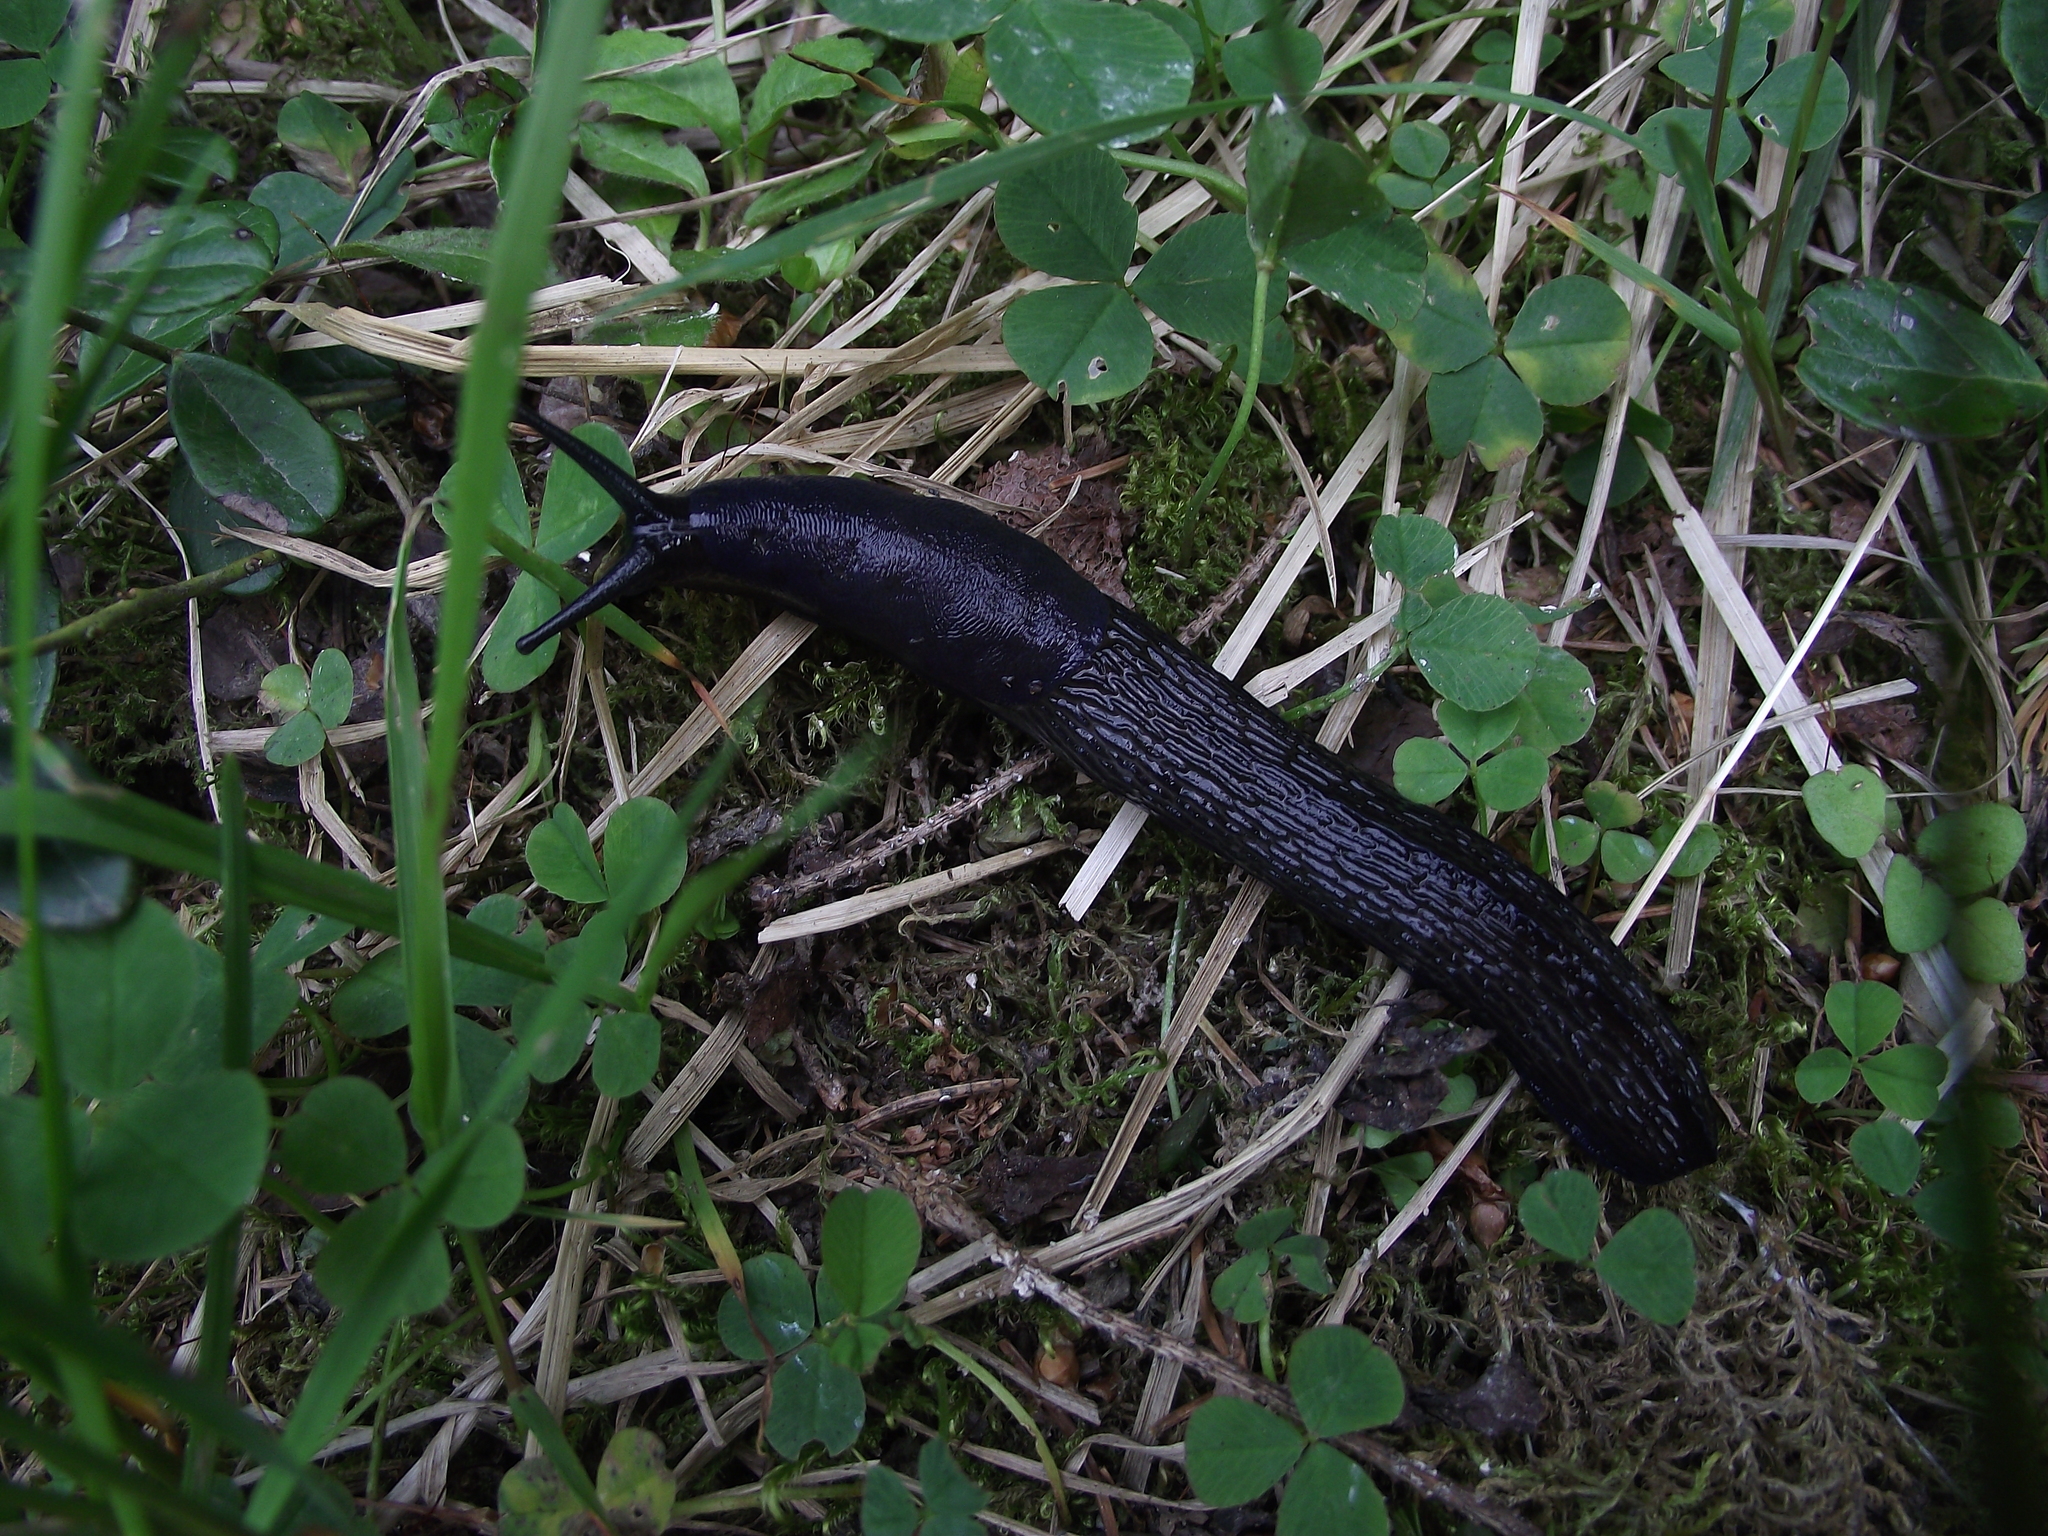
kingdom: Animalia
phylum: Mollusca
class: Gastropoda
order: Stylommatophora
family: Limacidae
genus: Limax
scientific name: Limax cinereoniger
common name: Ash-black slug
